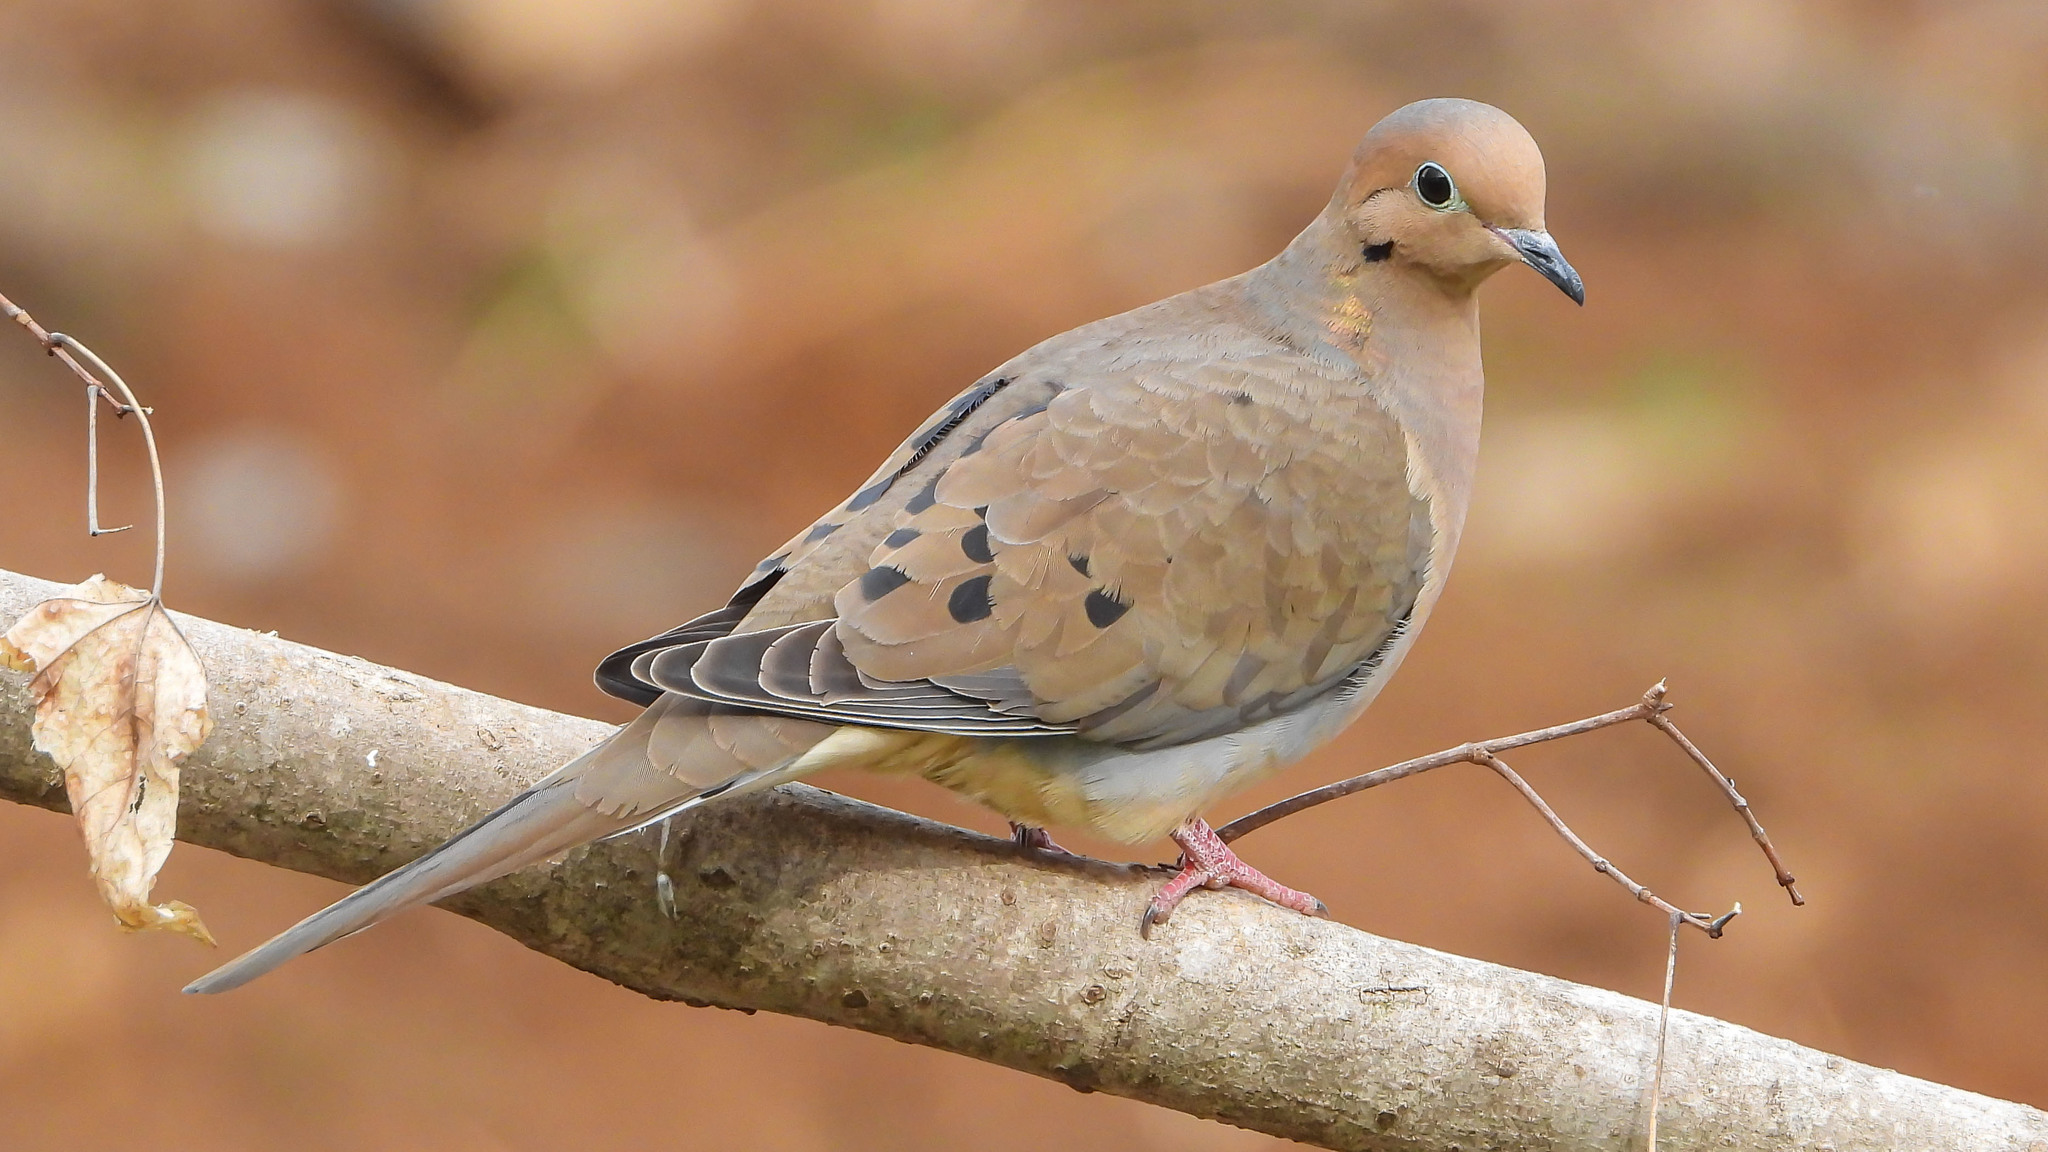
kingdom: Animalia
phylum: Chordata
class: Aves
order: Columbiformes
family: Columbidae
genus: Zenaida
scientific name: Zenaida macroura
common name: Mourning dove
